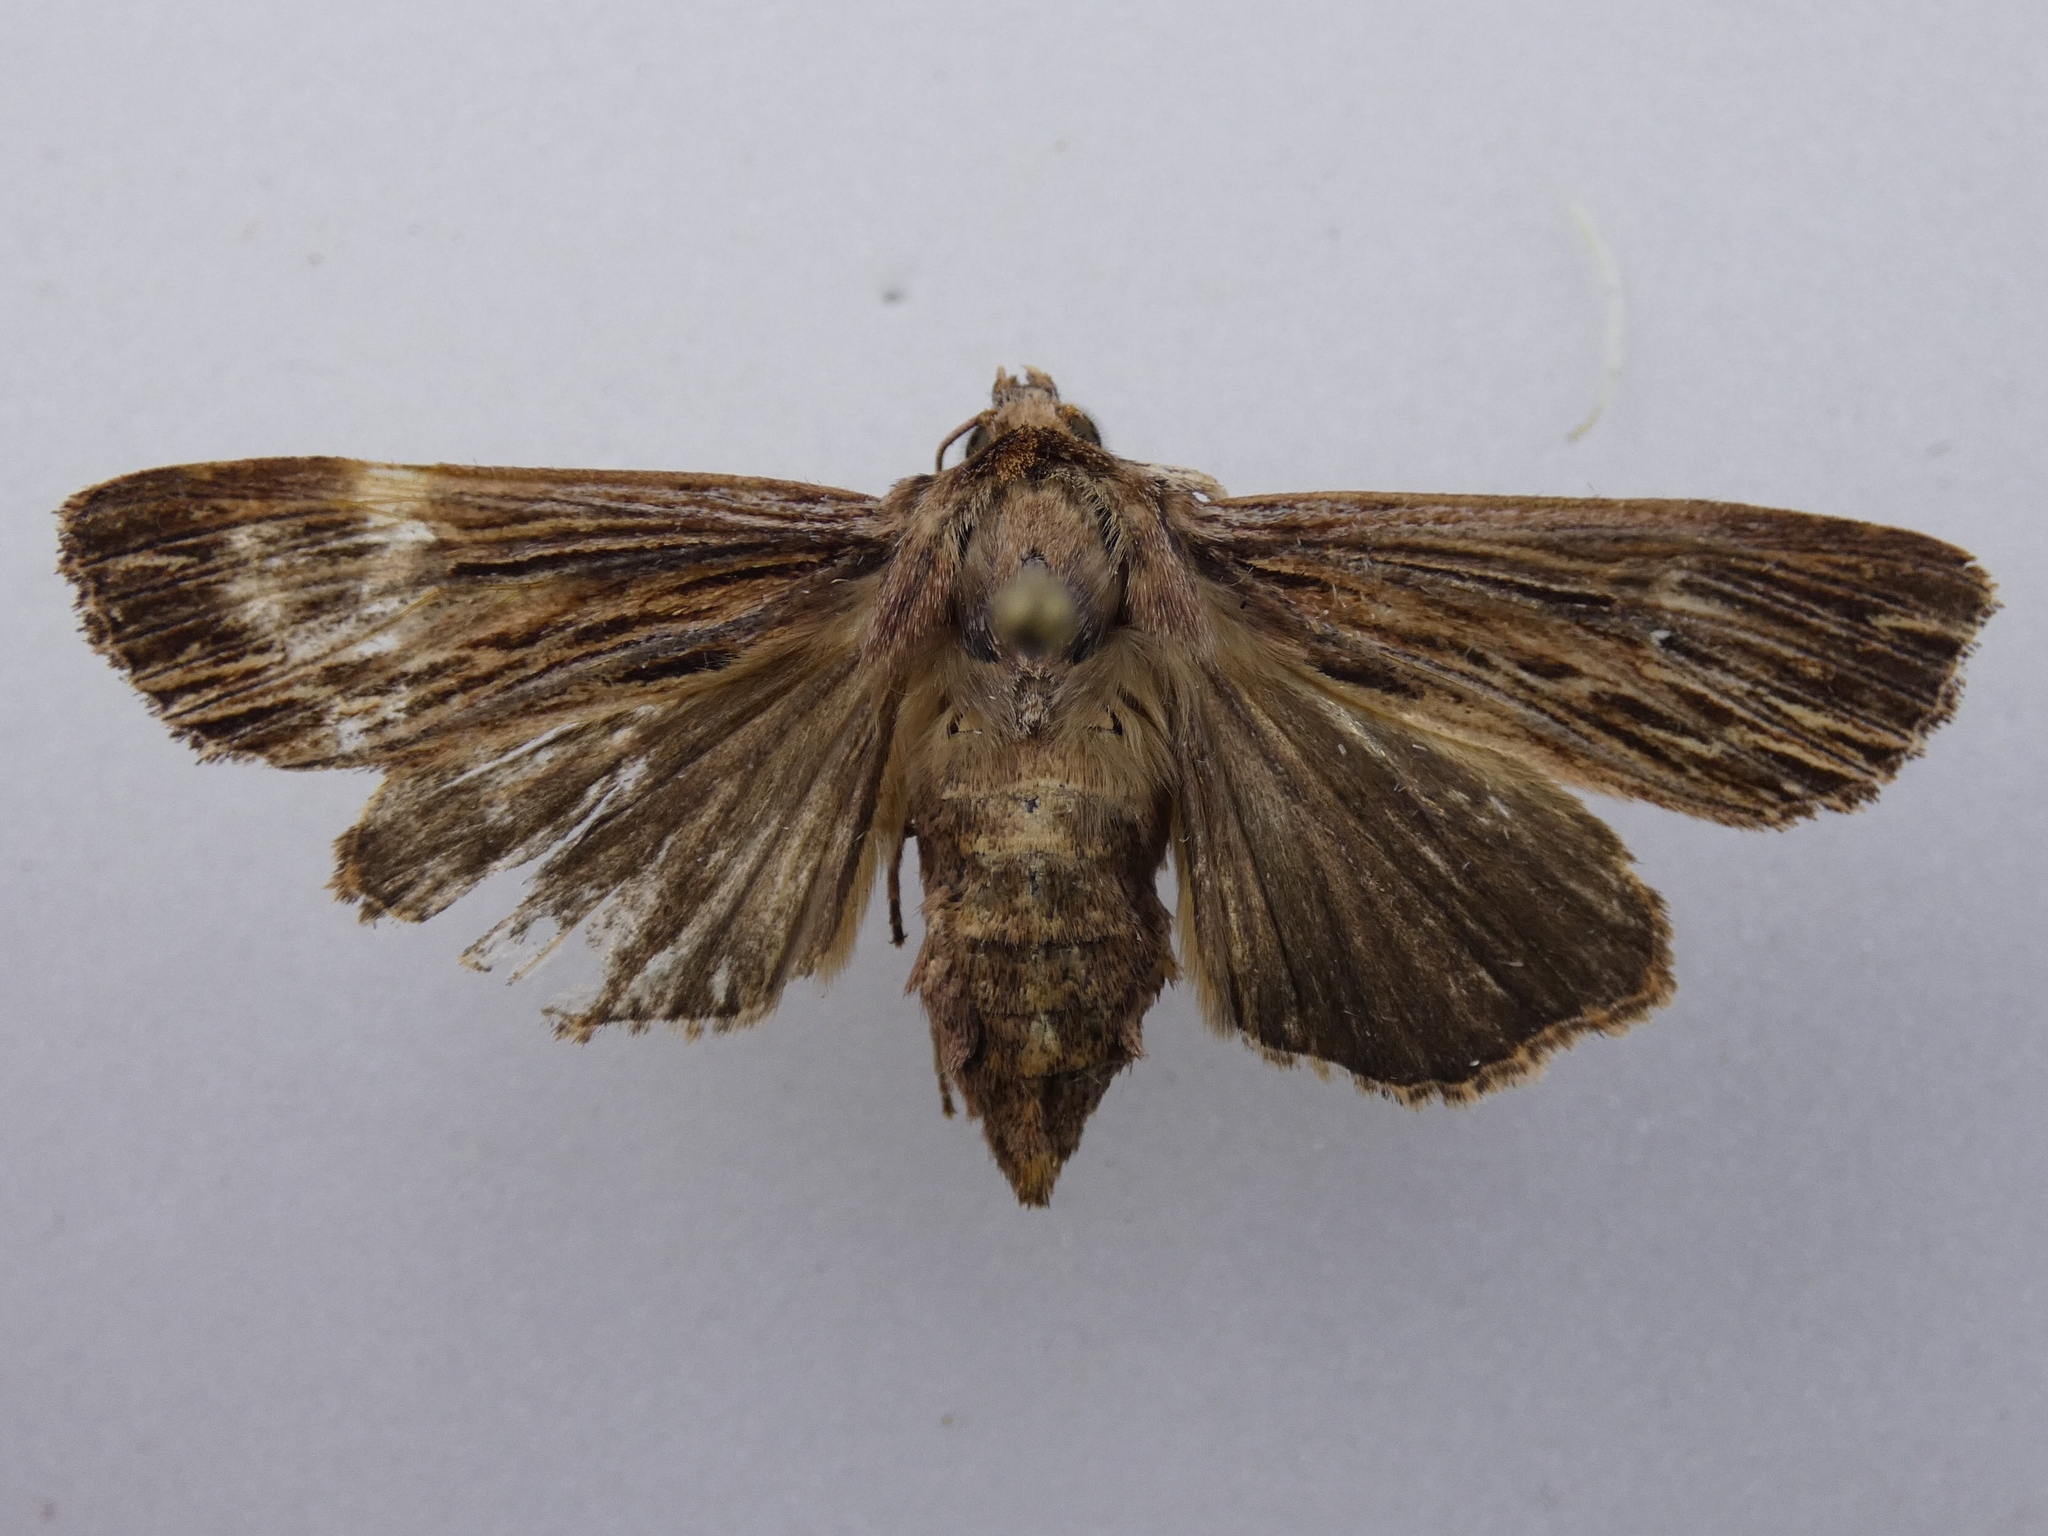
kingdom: Animalia
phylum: Arthropoda
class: Insecta
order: Lepidoptera
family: Noctuidae
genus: Ichneutica
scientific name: Ichneutica
